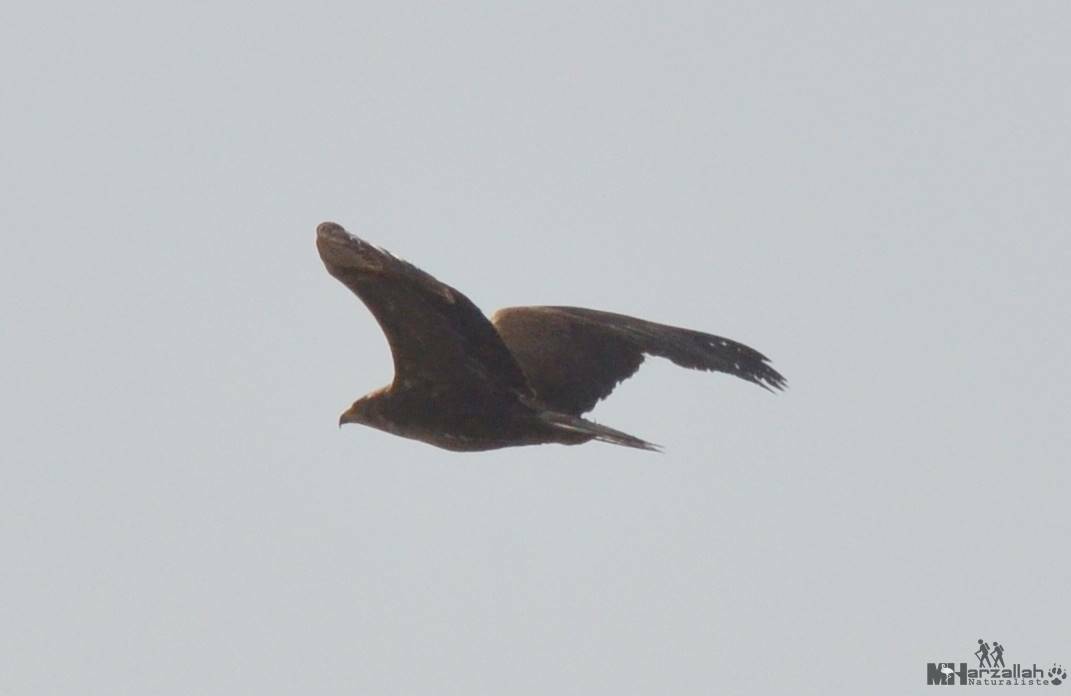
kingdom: Animalia
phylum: Chordata
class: Aves
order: Accipitriformes
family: Accipitridae
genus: Aquila
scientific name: Aquila pomarina
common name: Lesser spotted eagle
